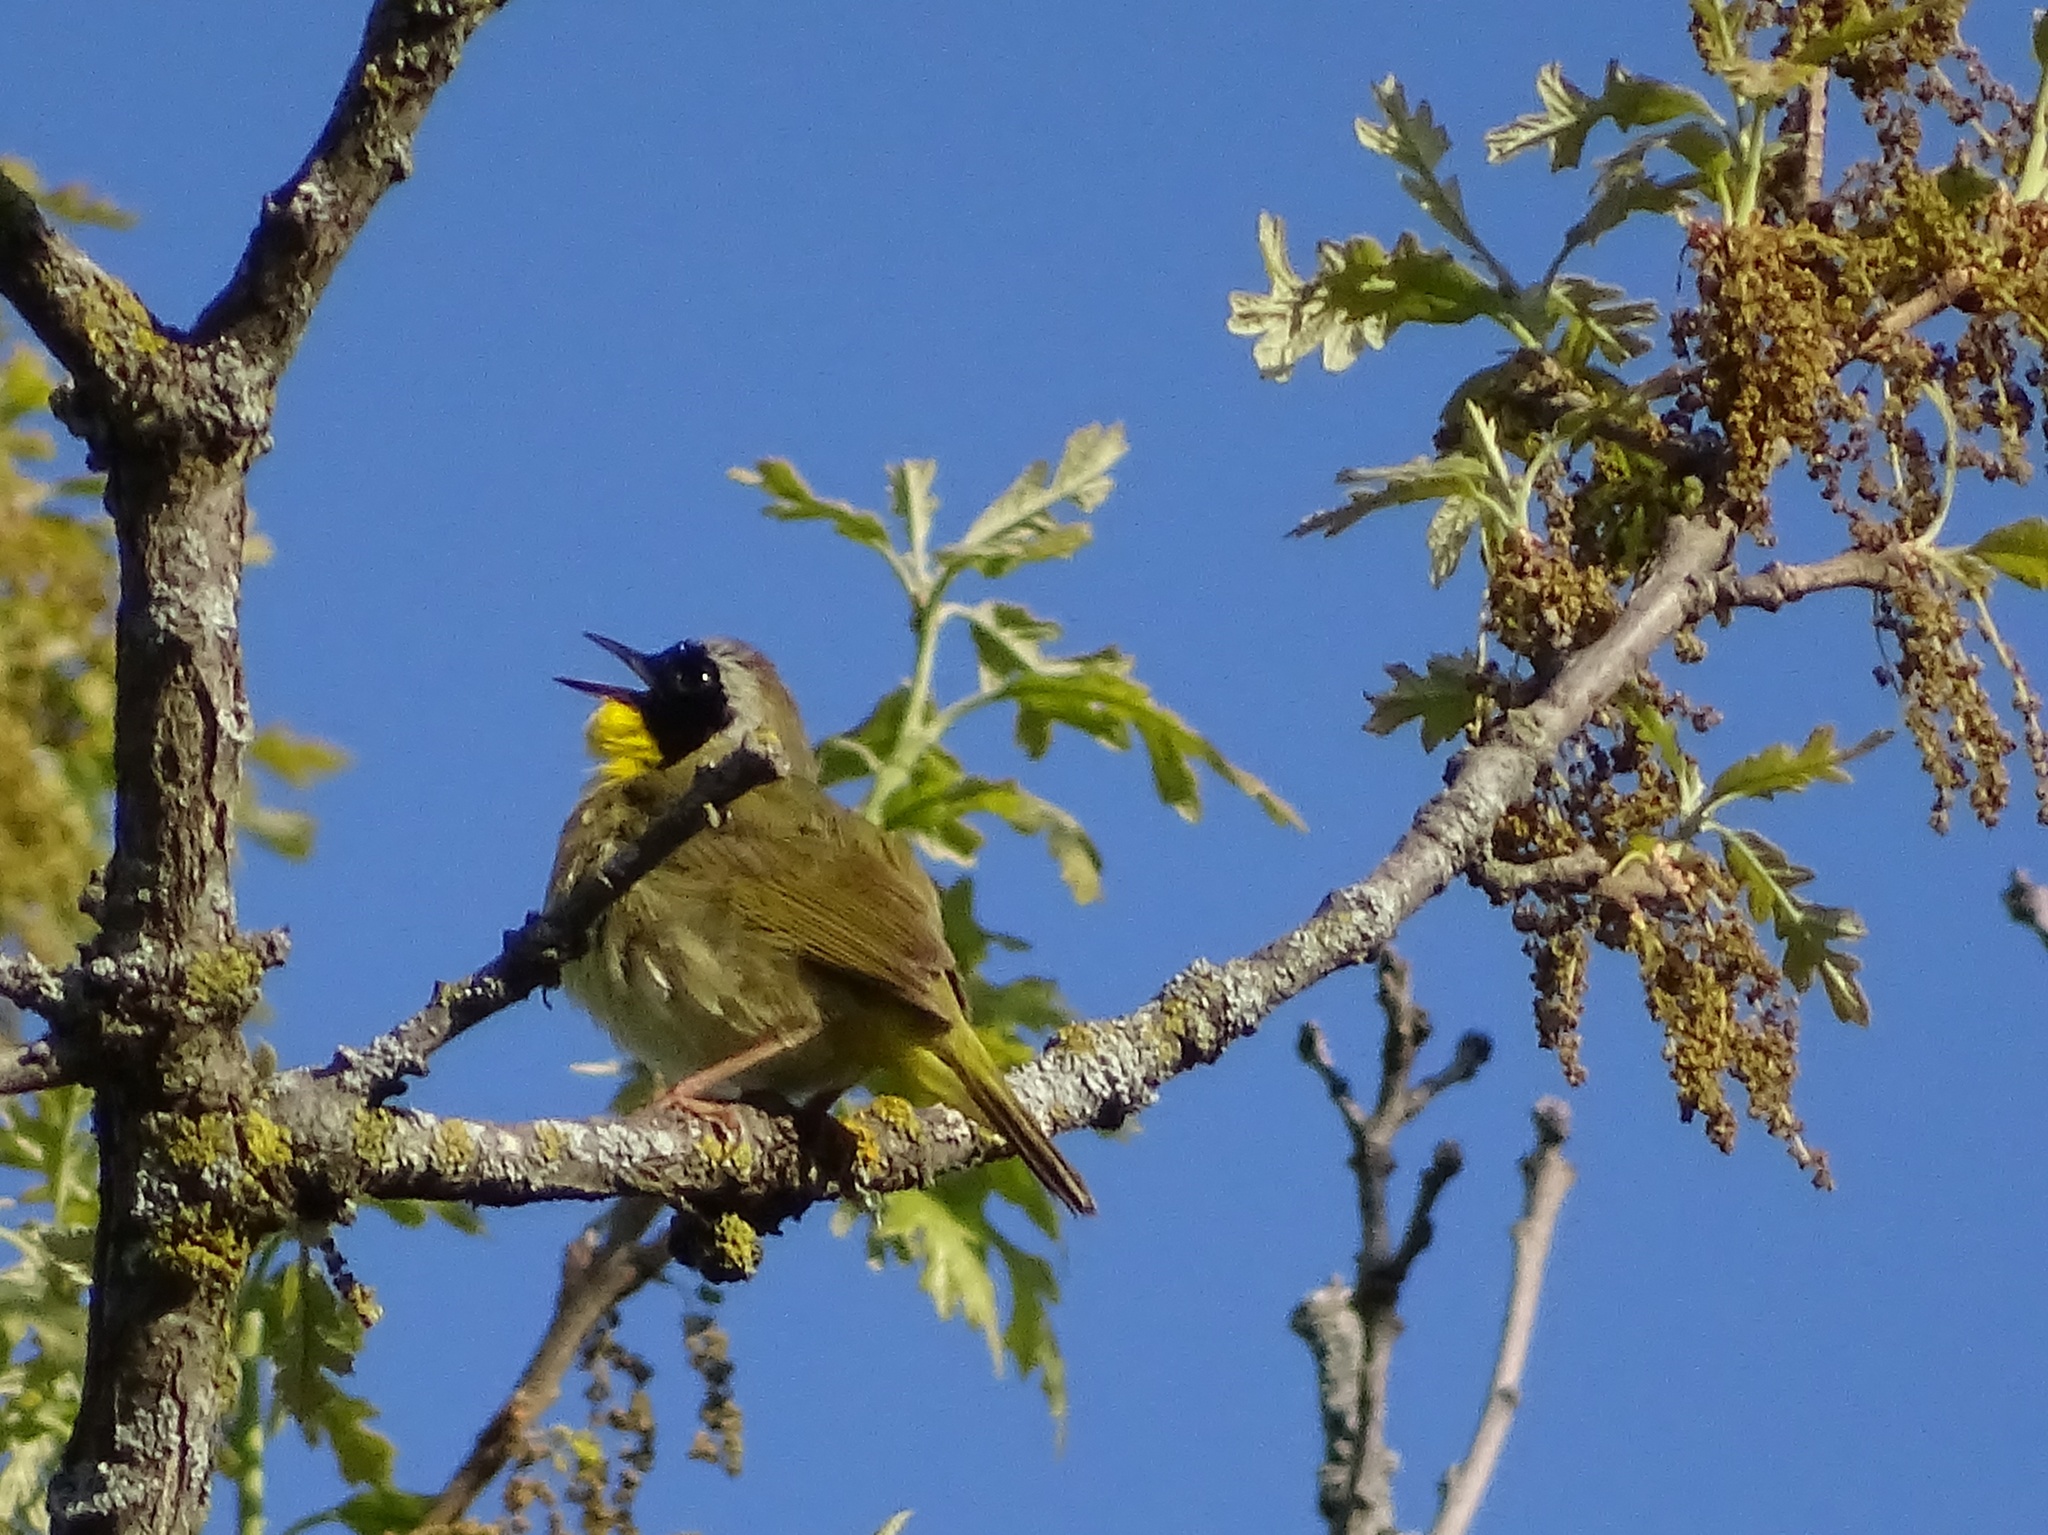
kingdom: Animalia
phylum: Chordata
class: Aves
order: Passeriformes
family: Parulidae
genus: Geothlypis
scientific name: Geothlypis trichas
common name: Common yellowthroat
